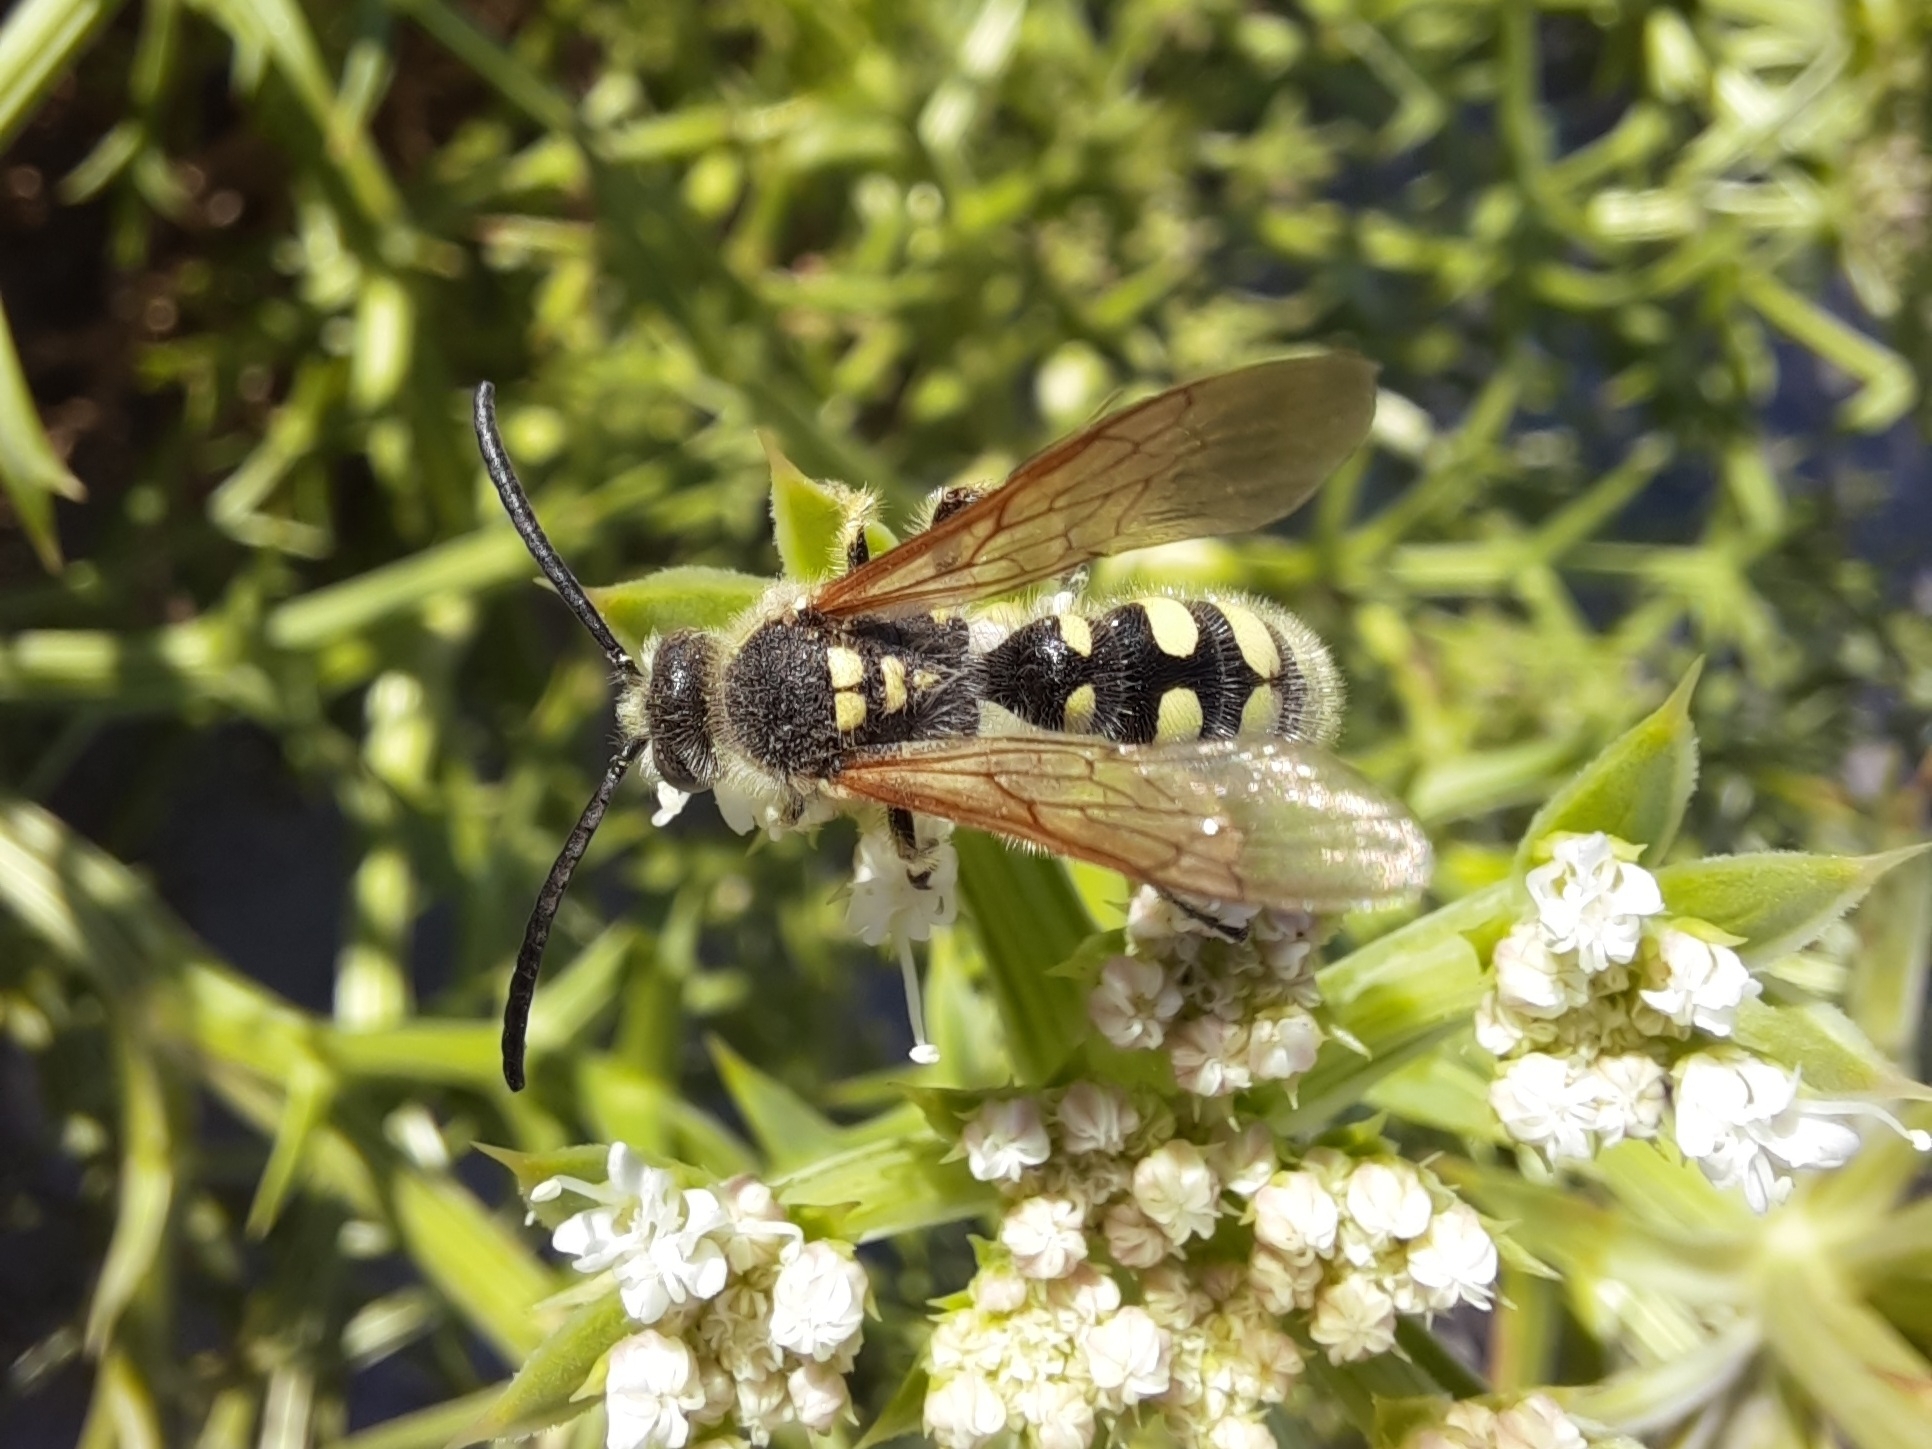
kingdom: Animalia
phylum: Arthropoda
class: Insecta
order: Hymenoptera
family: Vespidae
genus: Vespa
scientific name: Vespa sexmaculata
